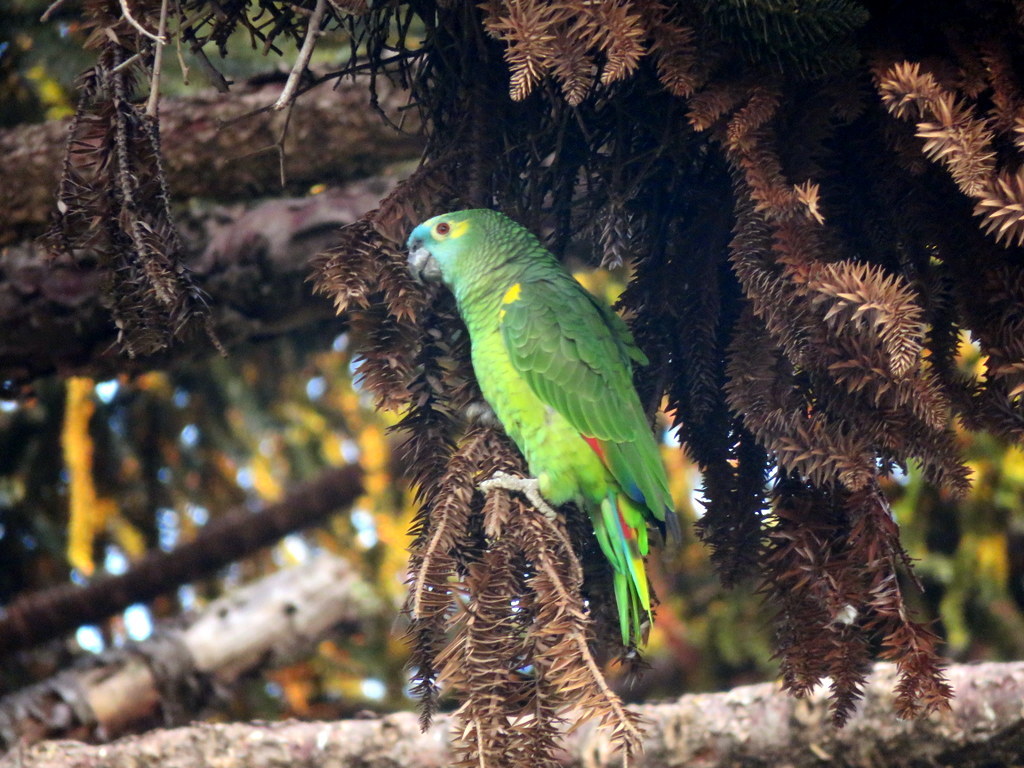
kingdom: Animalia
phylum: Chordata
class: Aves
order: Psittaciformes
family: Psittacidae
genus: Amazona
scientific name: Amazona aestiva
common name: Turquoise-fronted amazon
